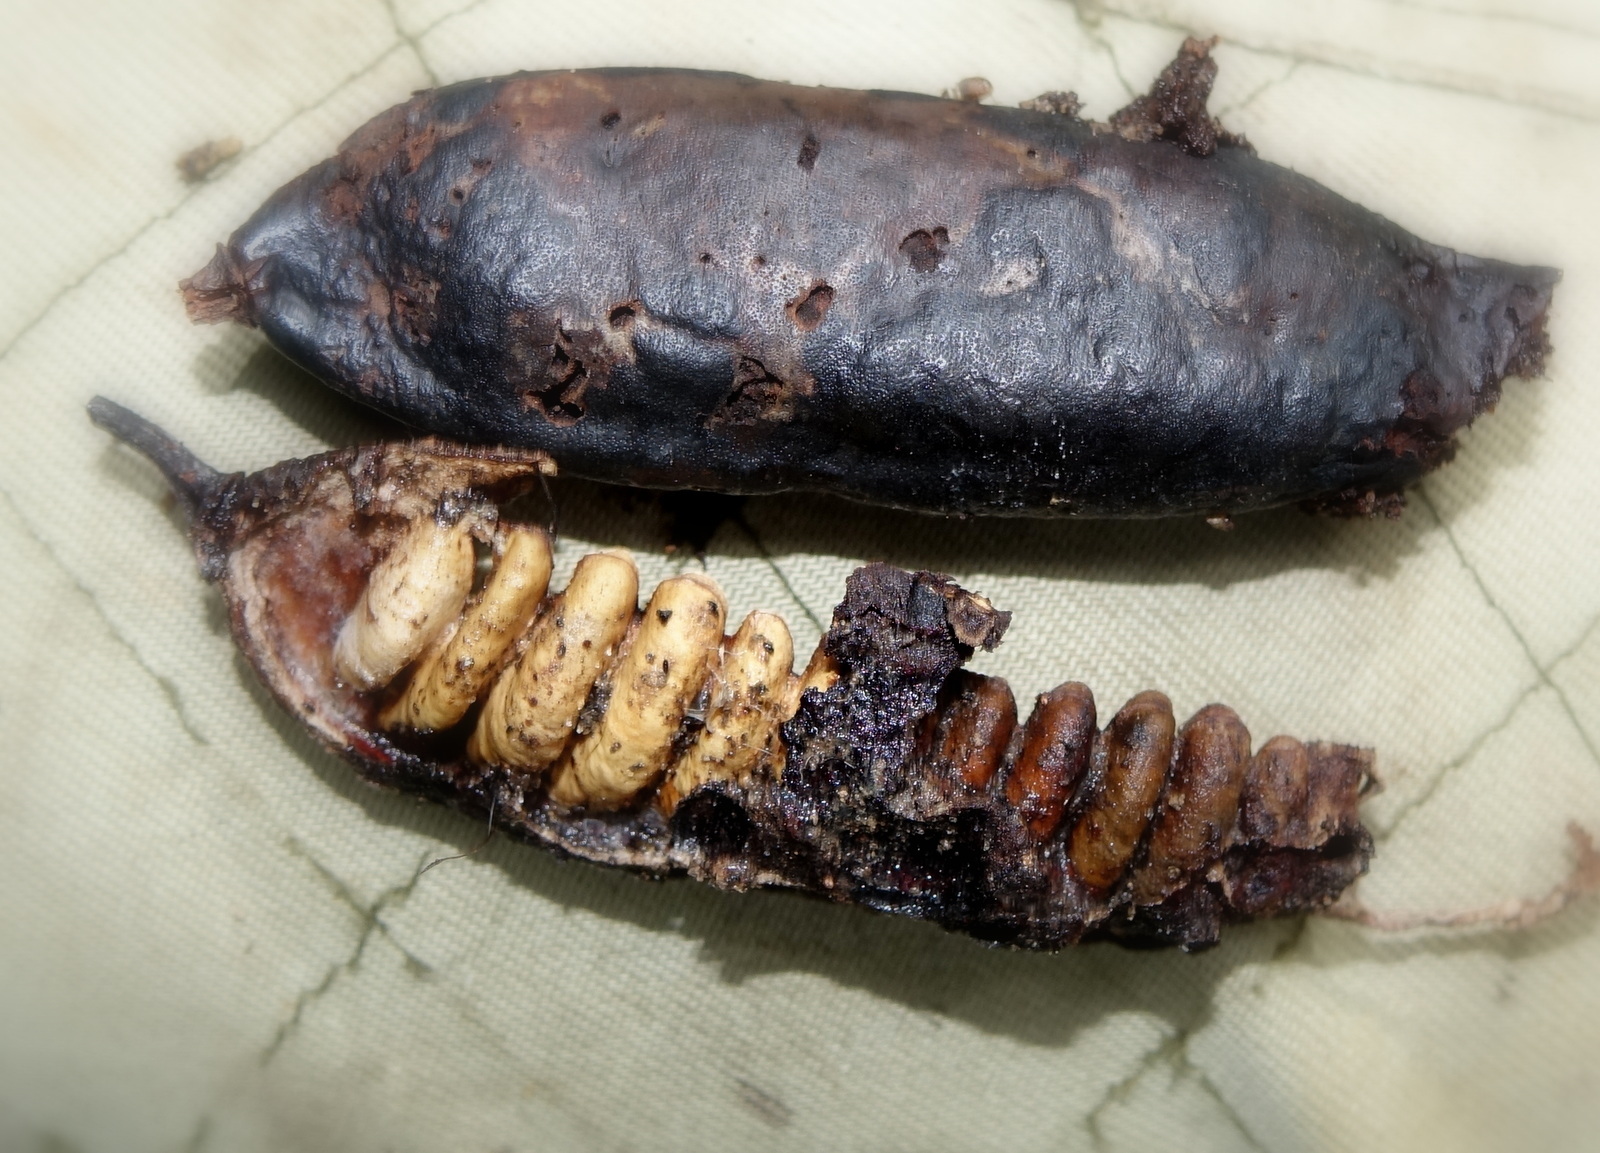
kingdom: Plantae
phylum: Tracheophyta
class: Magnoliopsida
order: Fabales
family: Fabaceae
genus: Baudouinia
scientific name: Baudouinia louvelii
